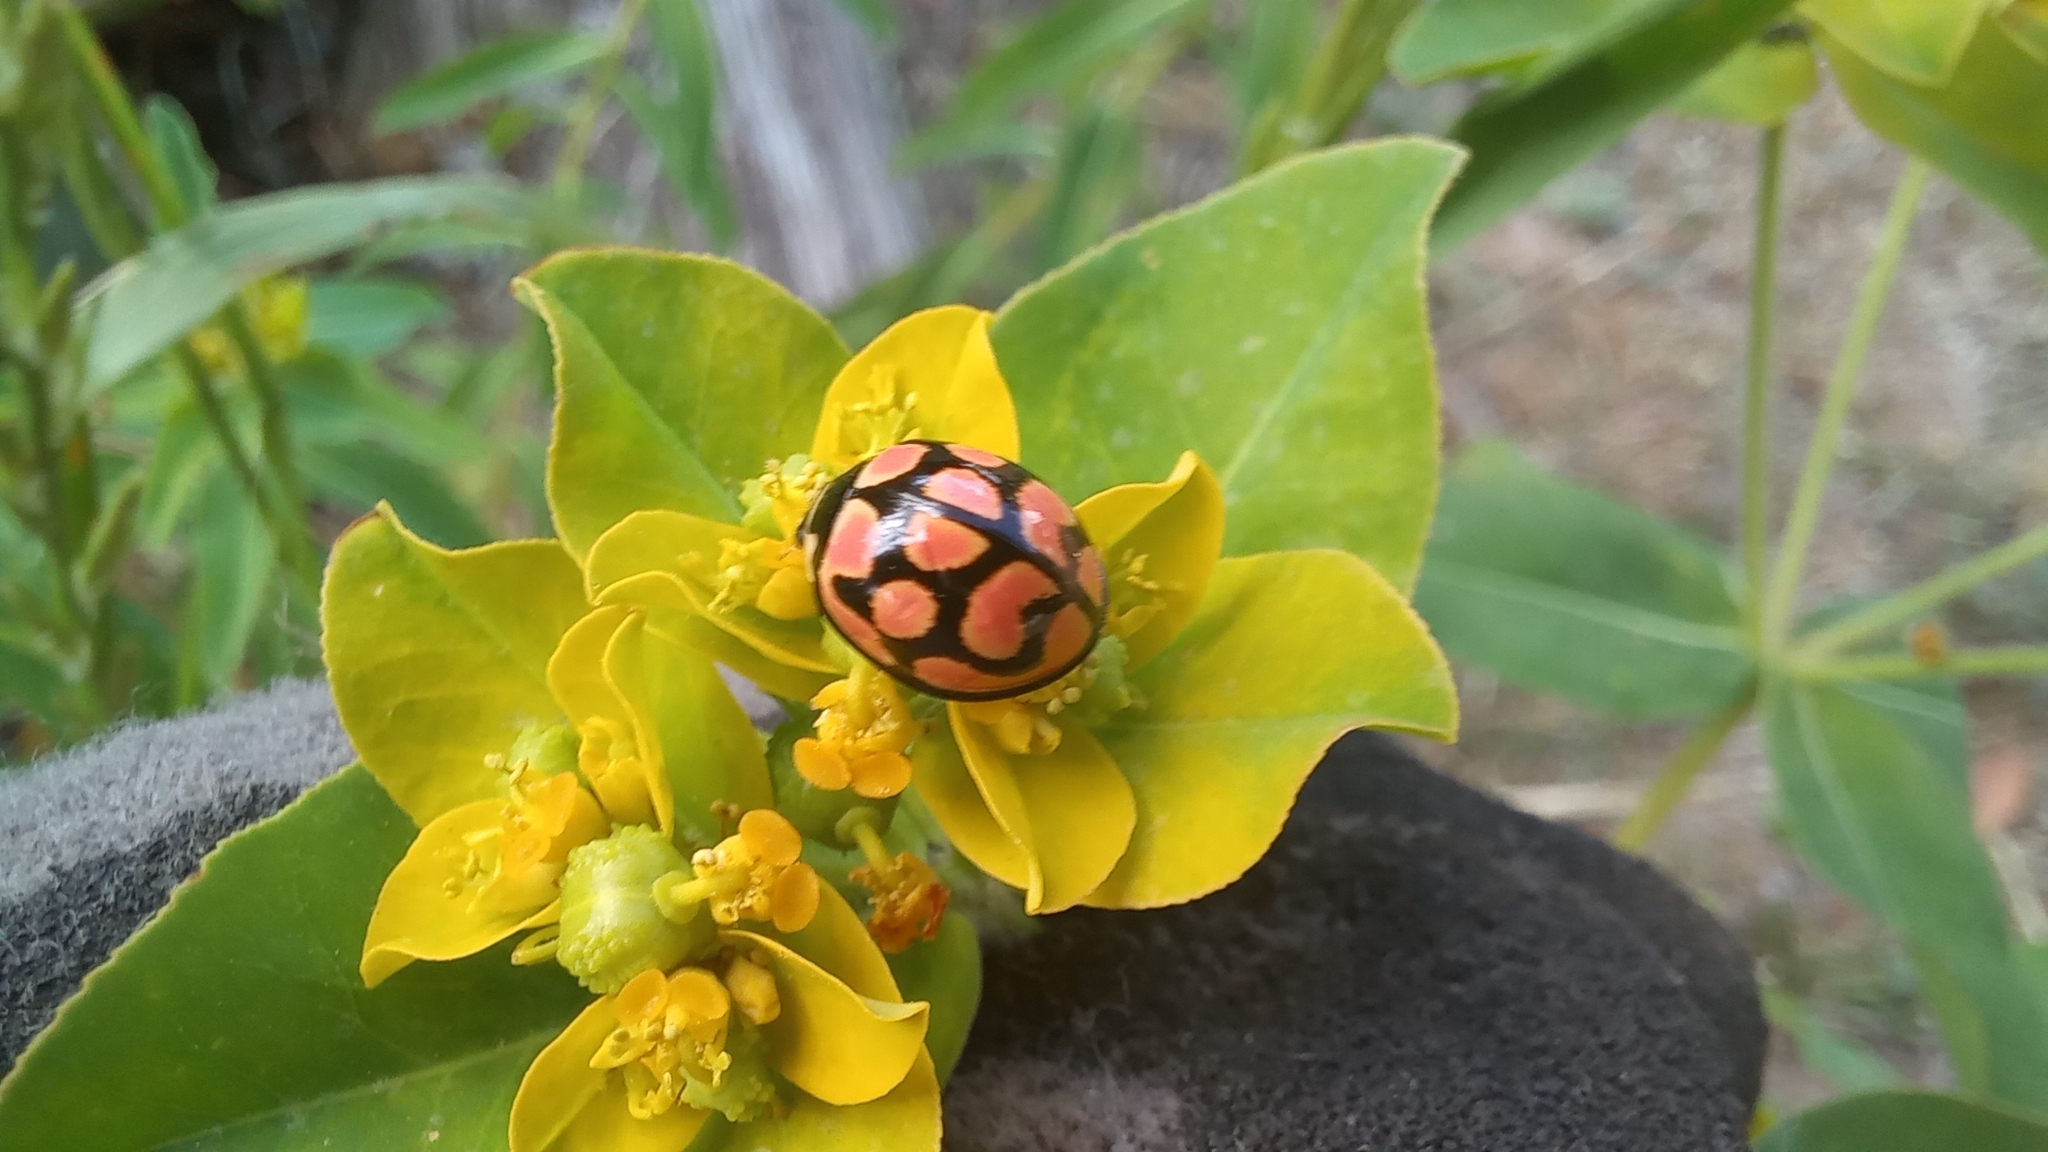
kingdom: Animalia
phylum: Arthropoda
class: Insecta
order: Coleoptera
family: Coccinellidae
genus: Cheilomenes
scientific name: Cheilomenes lunata
